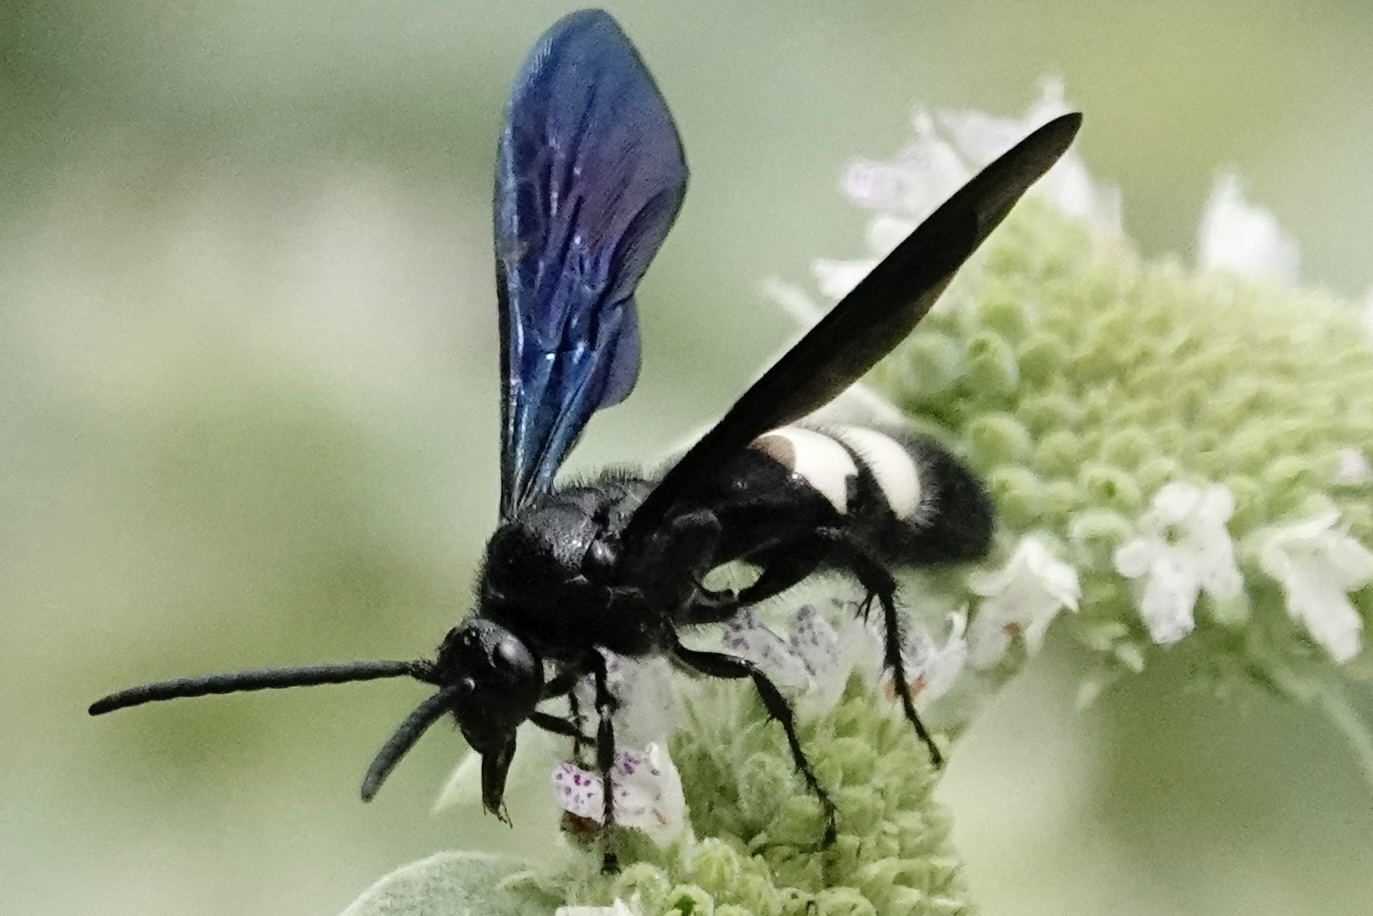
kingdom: Animalia
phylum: Arthropoda
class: Insecta
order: Hymenoptera
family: Scoliidae
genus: Scolia
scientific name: Scolia bicincta
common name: Double-banded scoliid wasp
